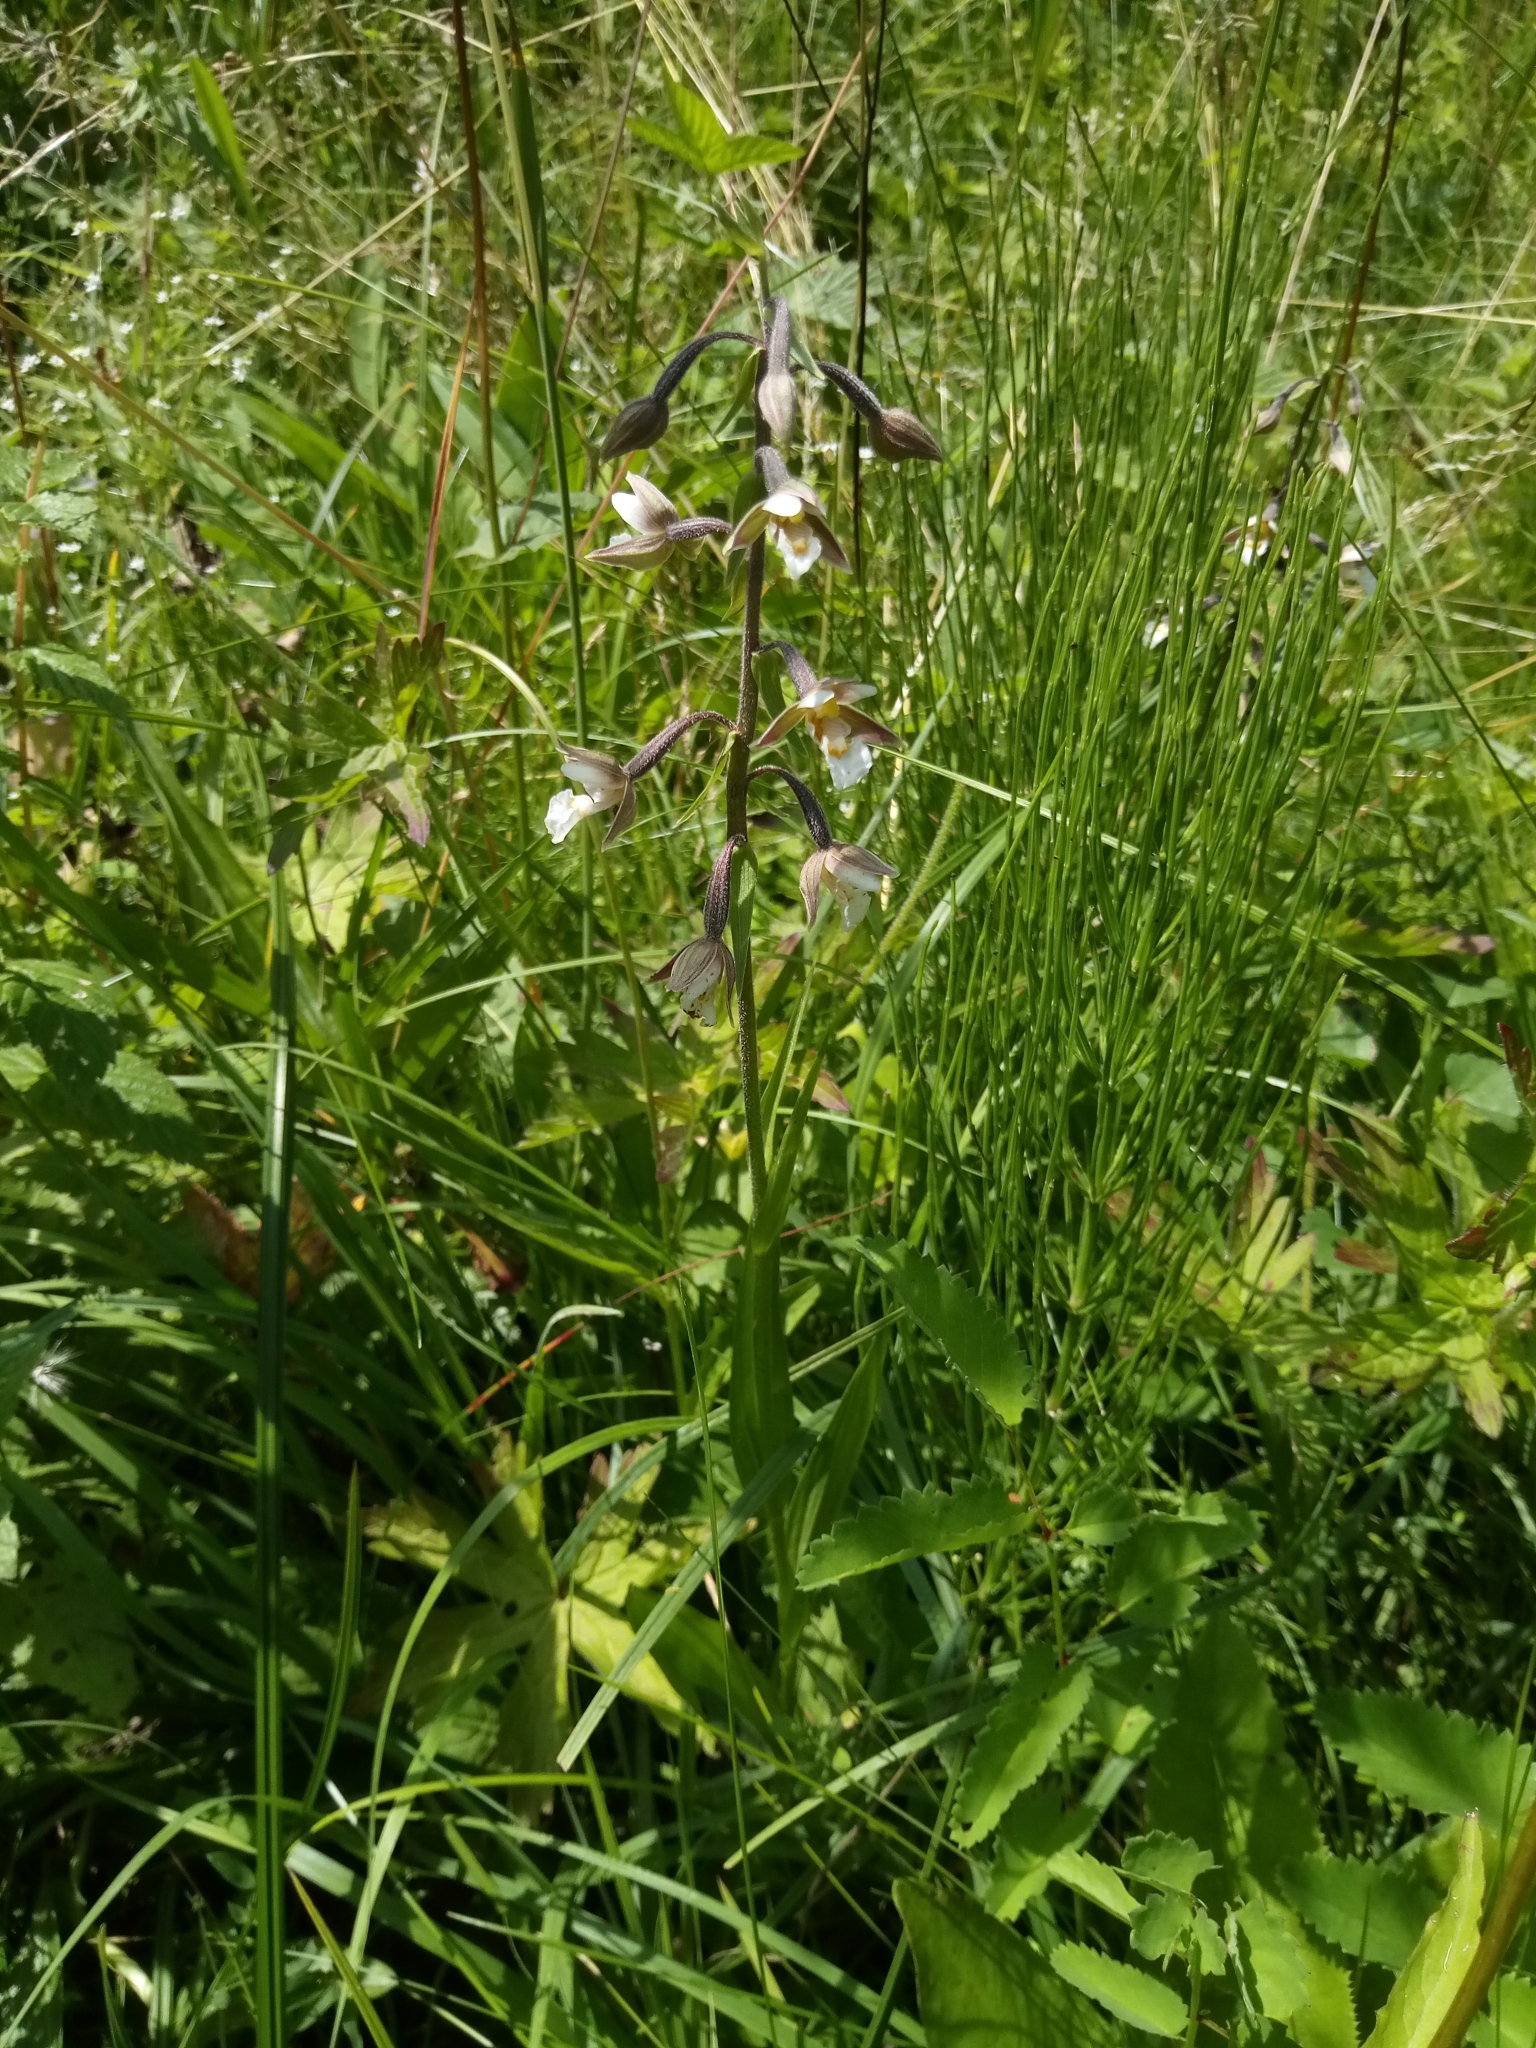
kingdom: Plantae
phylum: Tracheophyta
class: Liliopsida
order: Asparagales
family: Orchidaceae
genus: Epipactis
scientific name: Epipactis palustris
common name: Marsh helleborine
